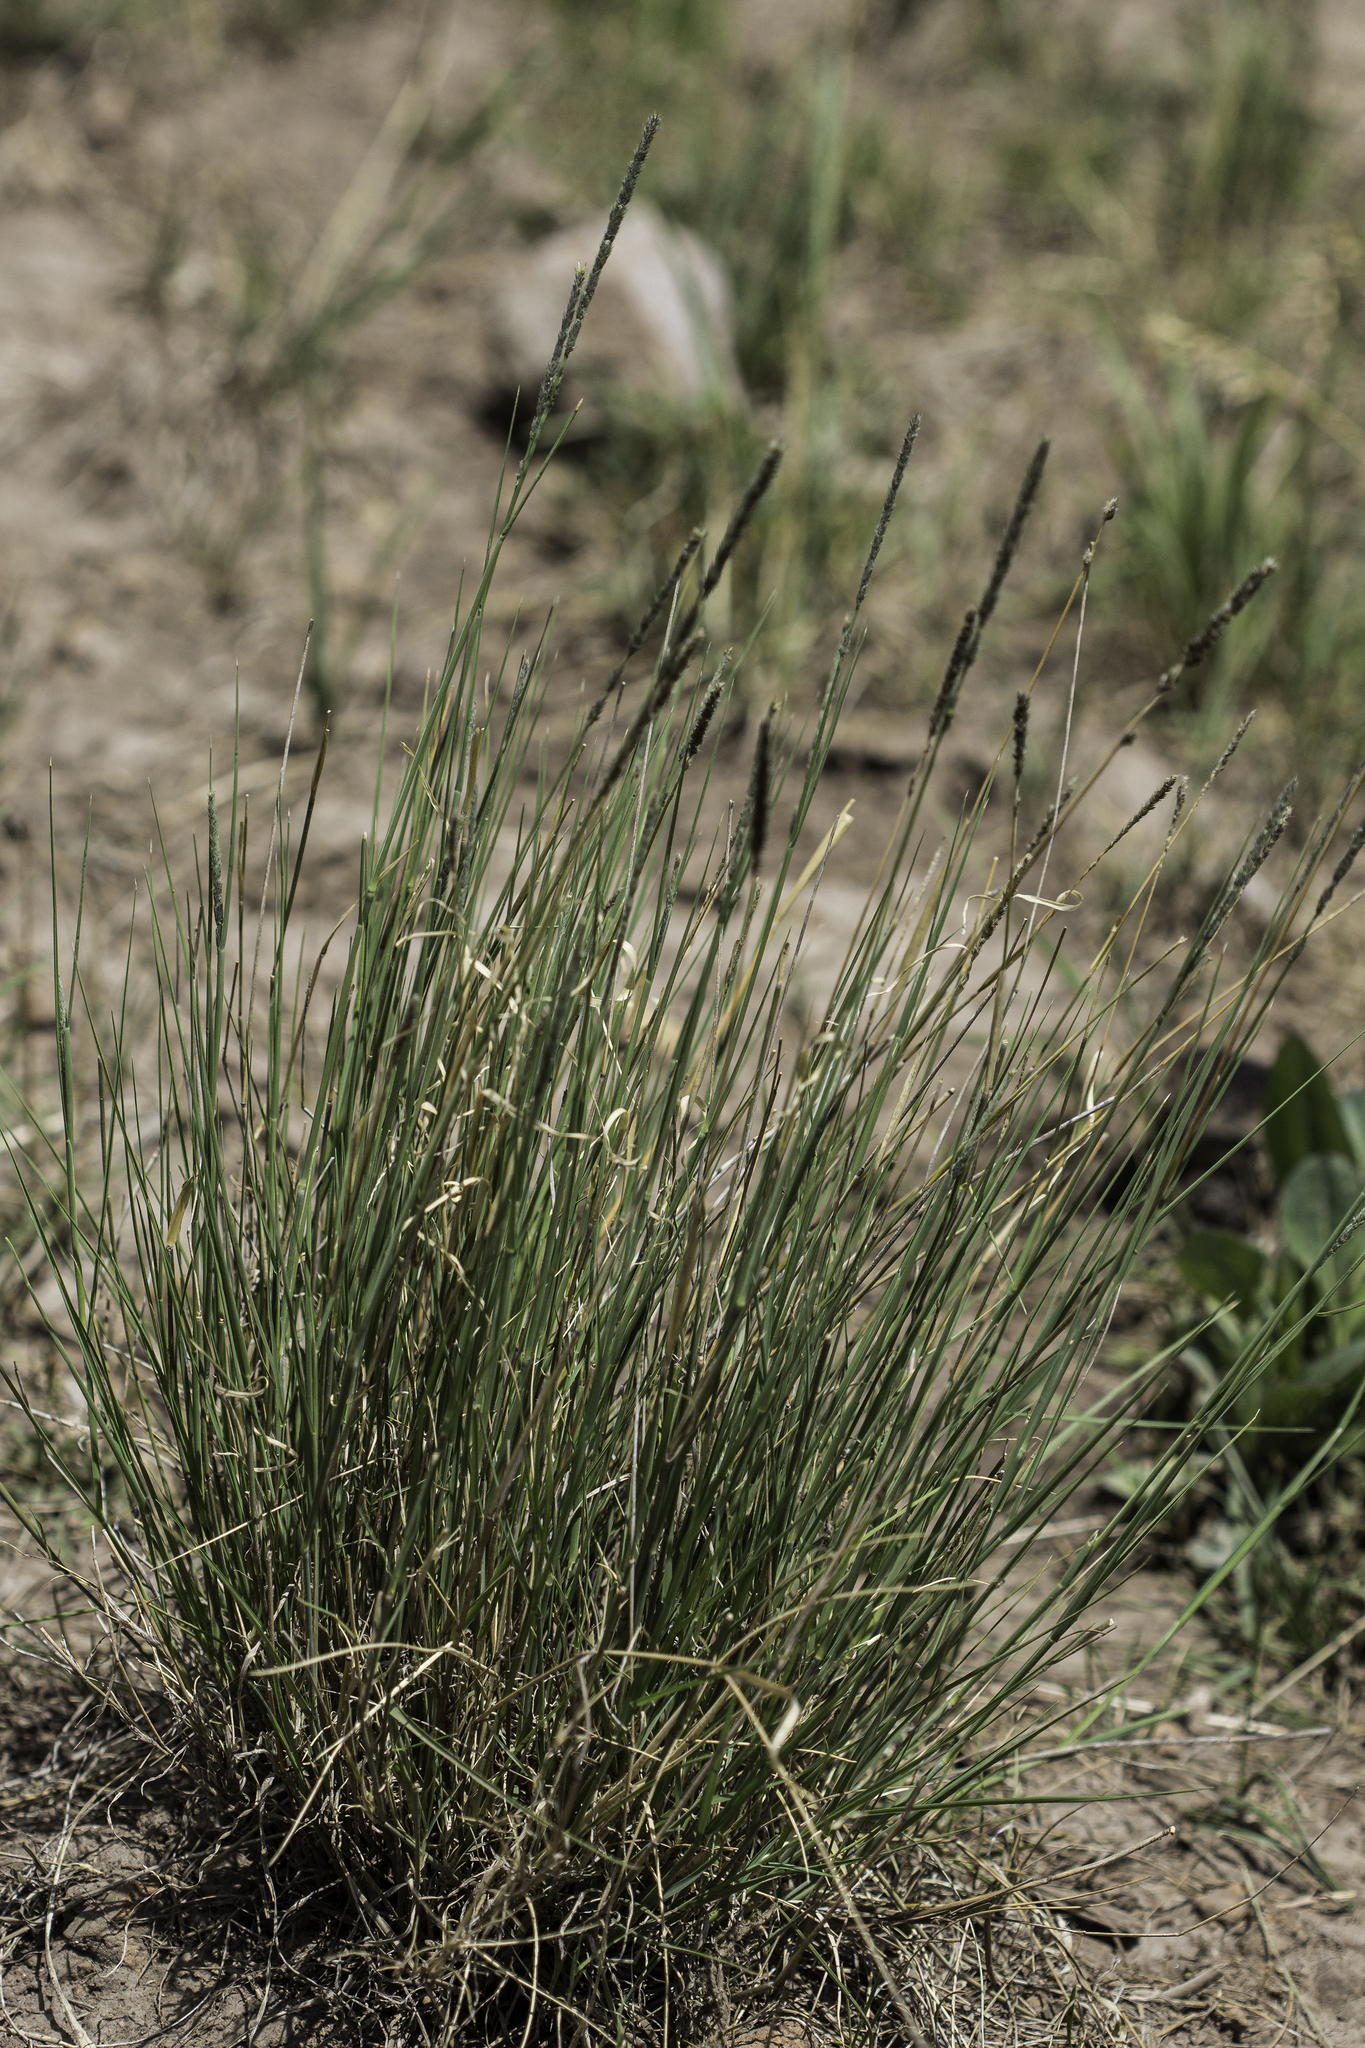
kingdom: Plantae
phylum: Tracheophyta
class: Liliopsida
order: Poales
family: Poaceae
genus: Muhlenbergia
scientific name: Muhlenbergia wrightii
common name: Spike muhly
